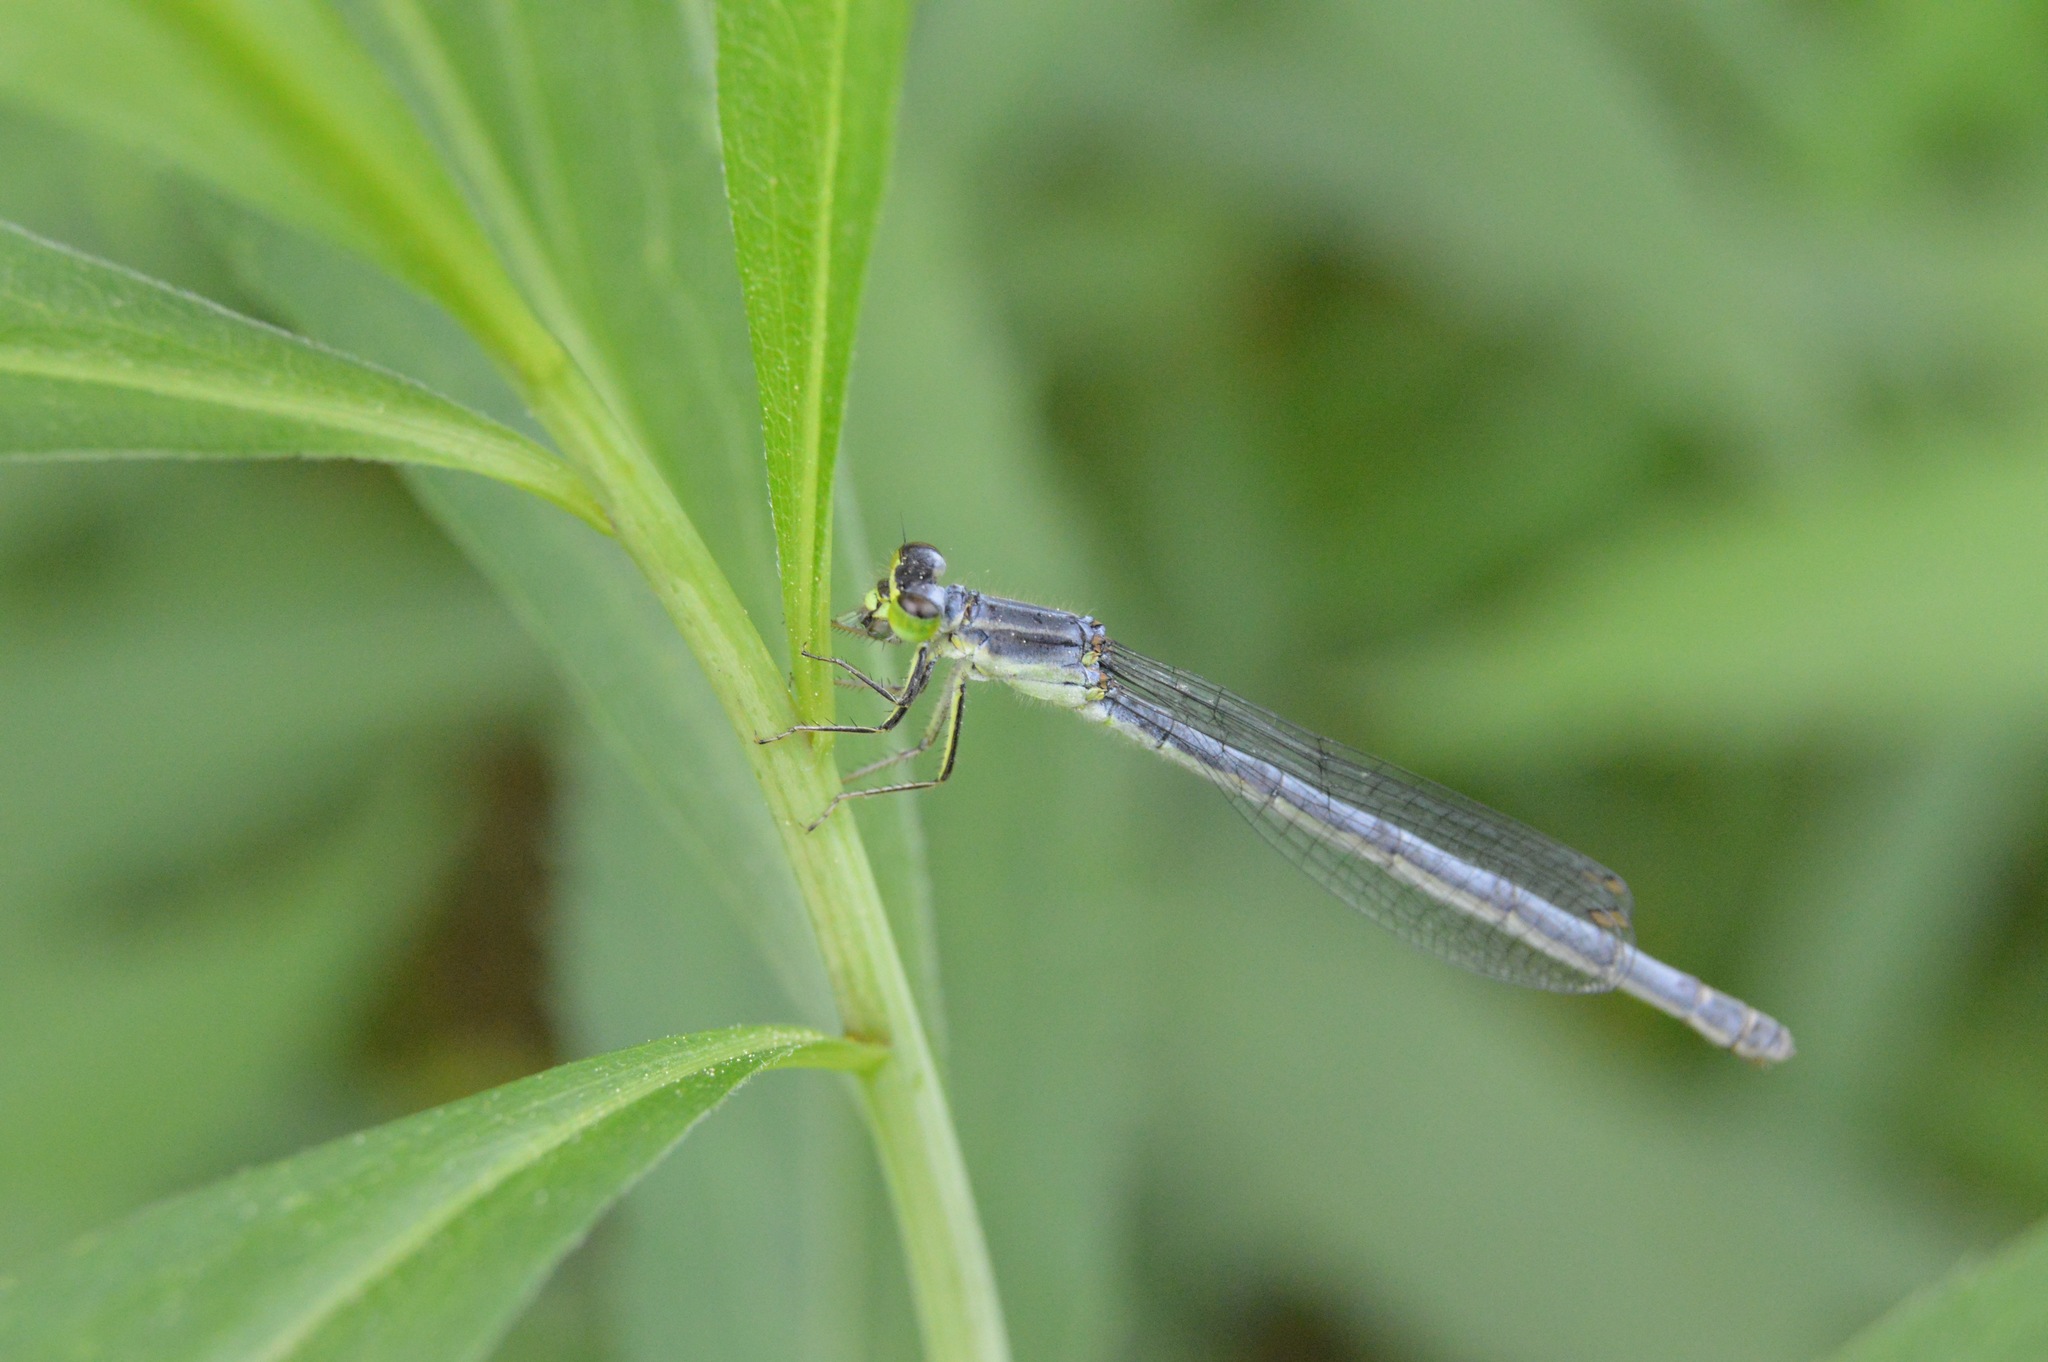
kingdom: Animalia
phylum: Arthropoda
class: Insecta
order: Odonata
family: Coenagrionidae
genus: Ischnura
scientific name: Ischnura verticalis
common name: Eastern forktail
